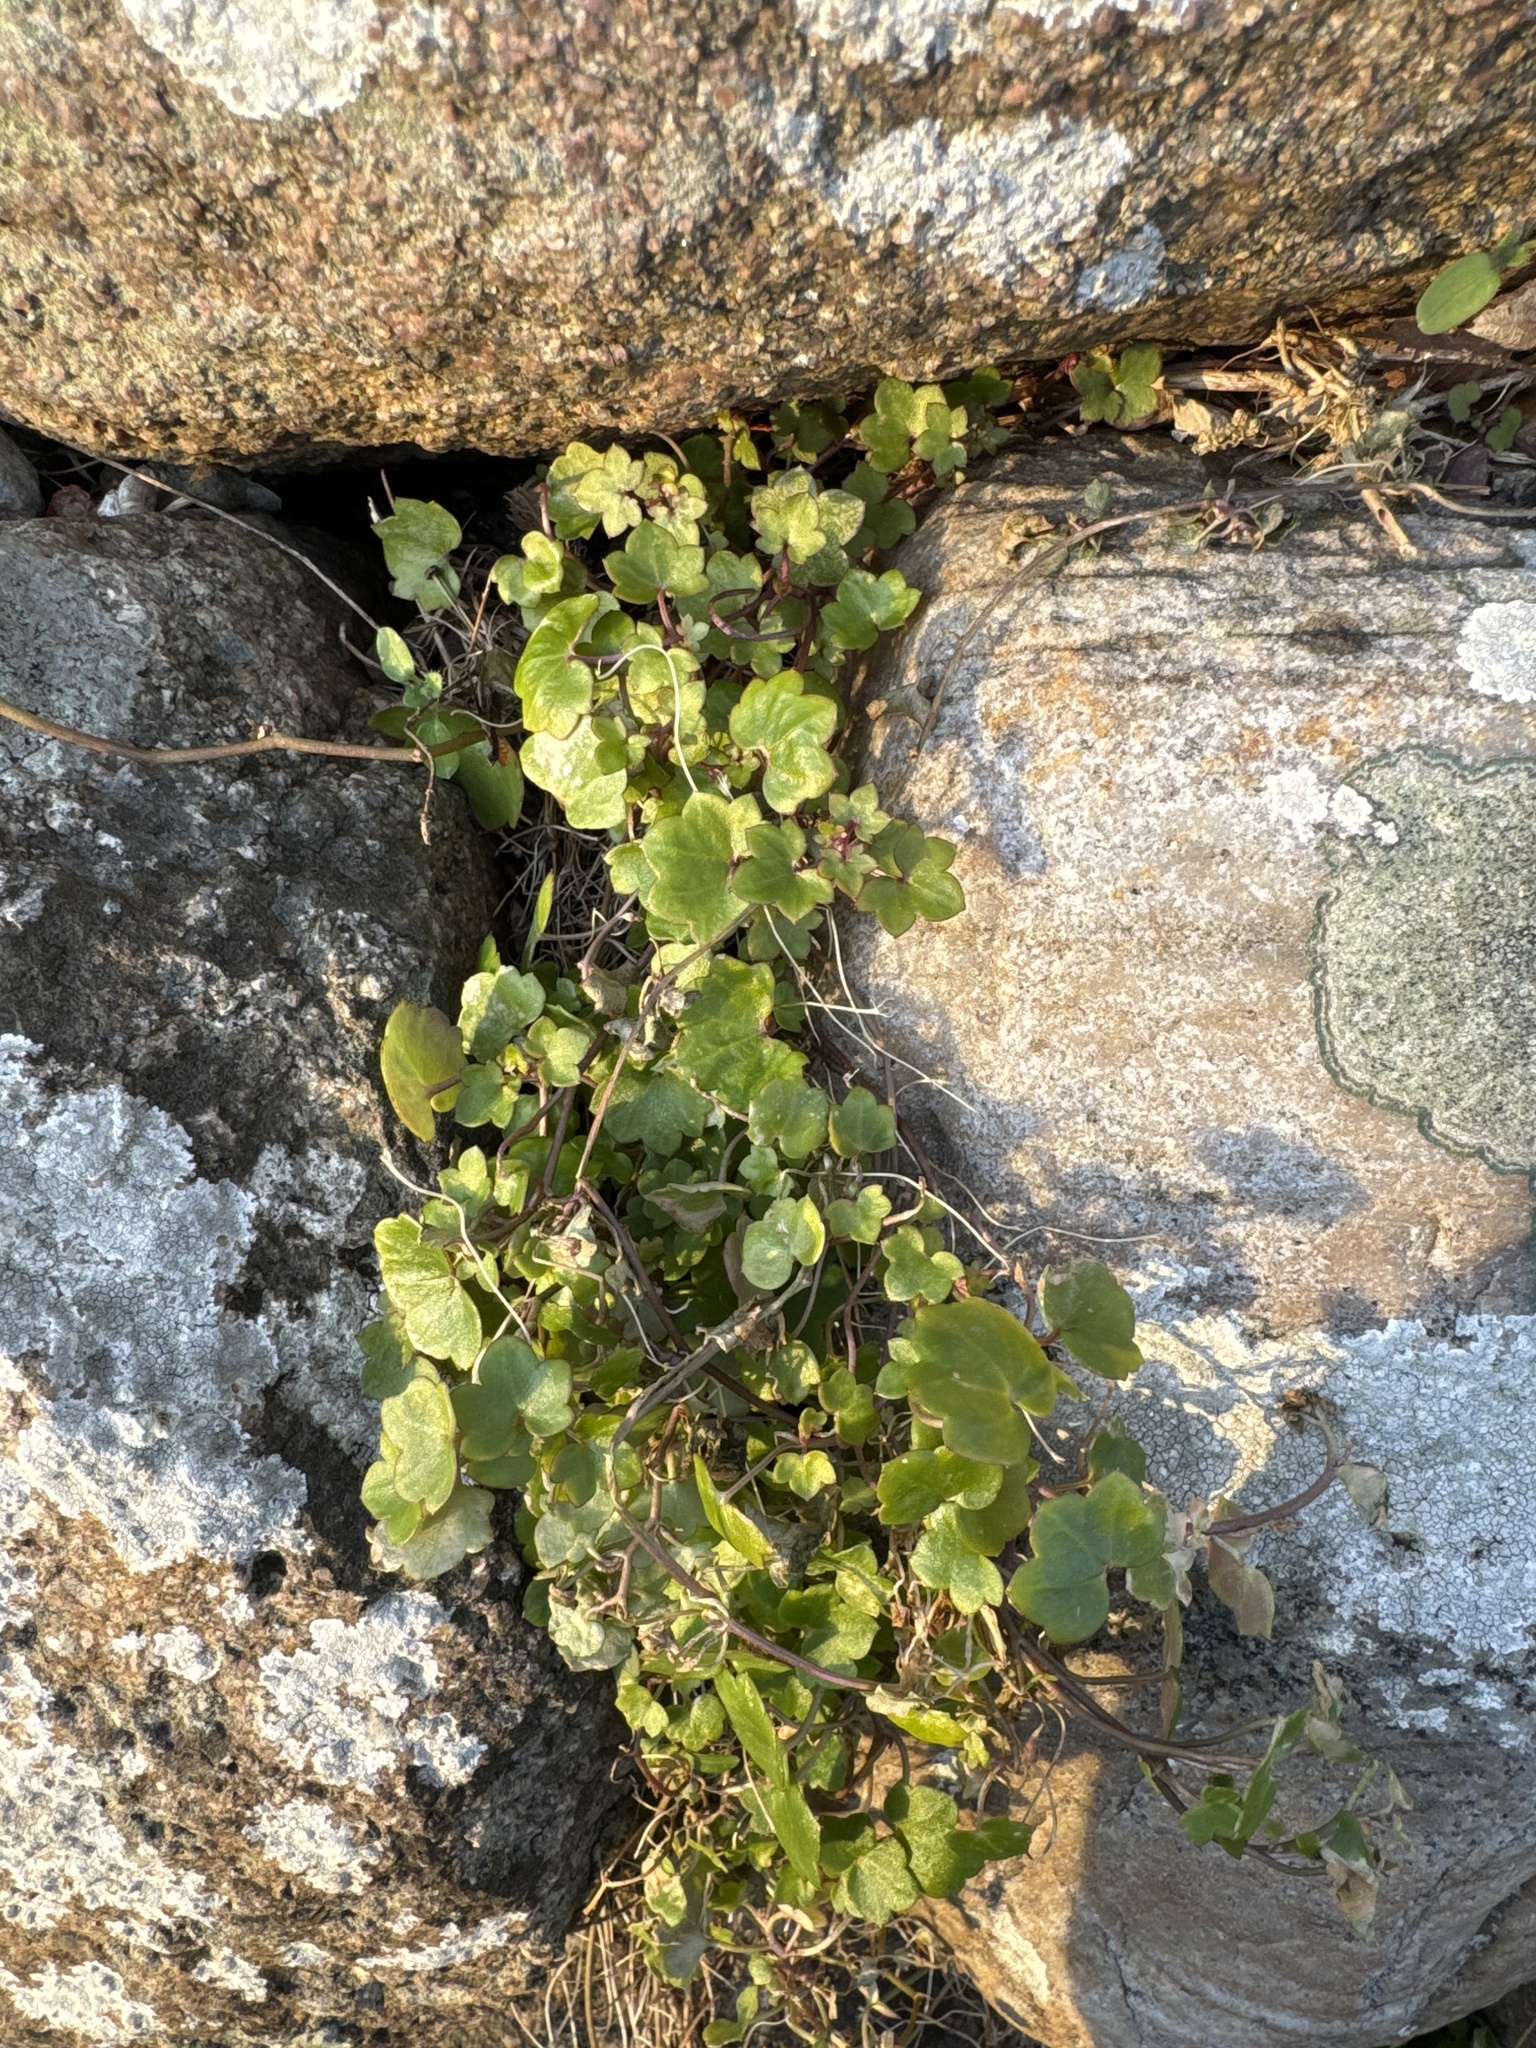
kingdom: Plantae
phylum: Tracheophyta
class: Magnoliopsida
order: Lamiales
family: Plantaginaceae
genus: Cymbalaria
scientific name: Cymbalaria muralis
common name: Ivy-leaved toadflax
